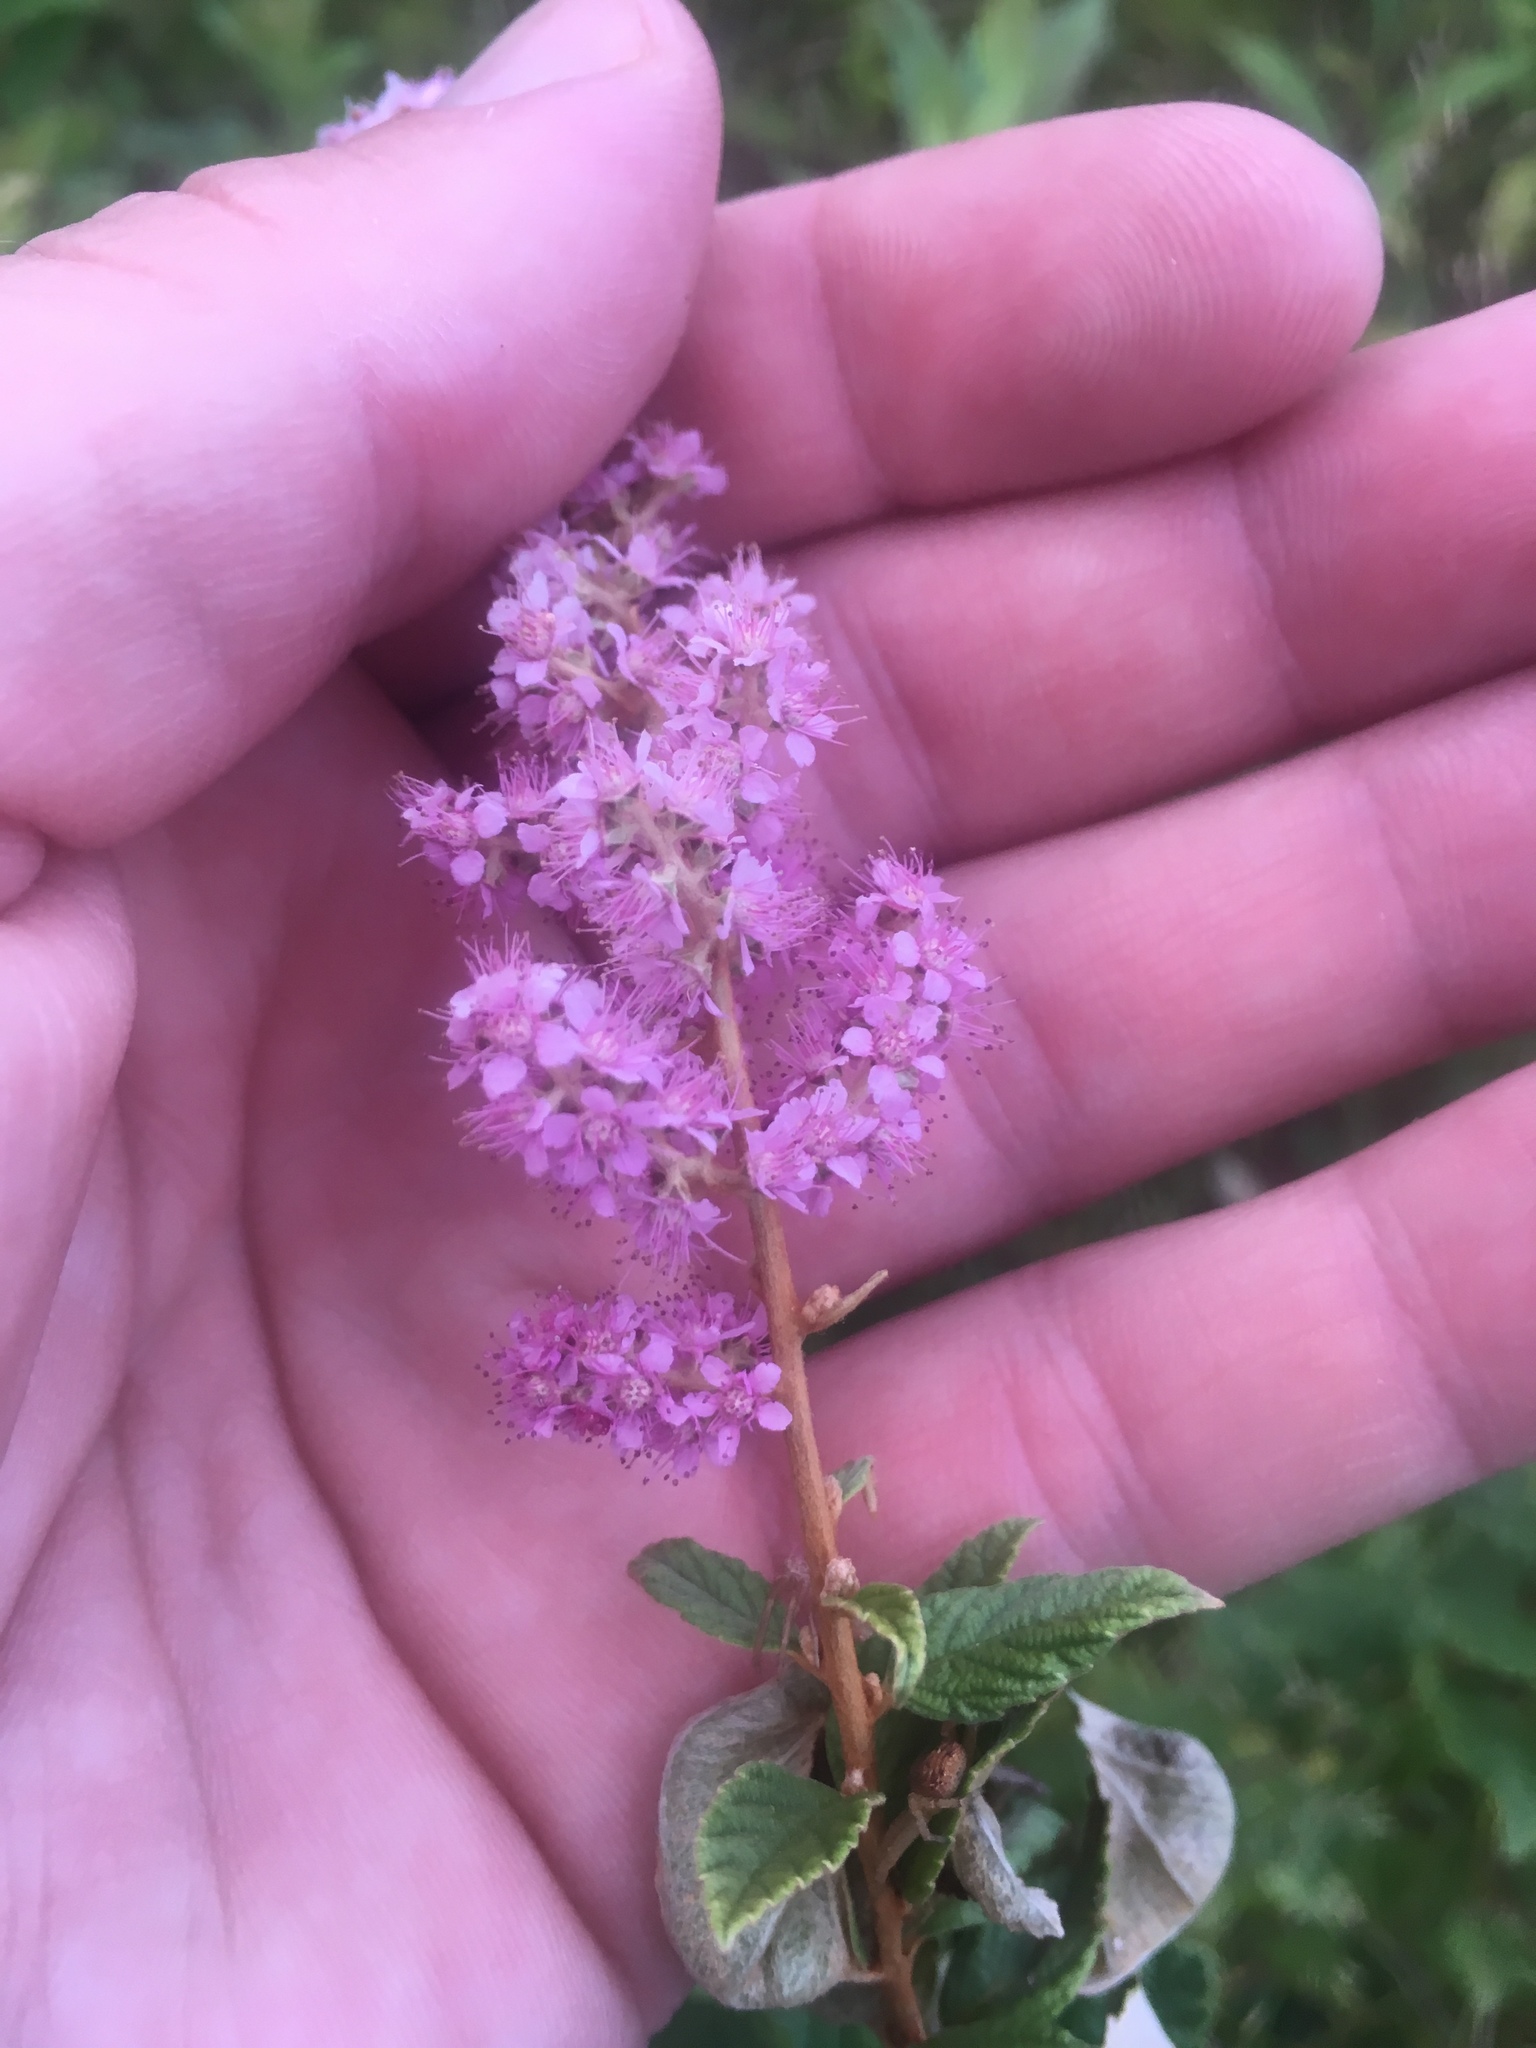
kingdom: Plantae
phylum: Tracheophyta
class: Magnoliopsida
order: Rosales
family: Rosaceae
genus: Spiraea
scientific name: Spiraea tomentosa
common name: Hardhack
